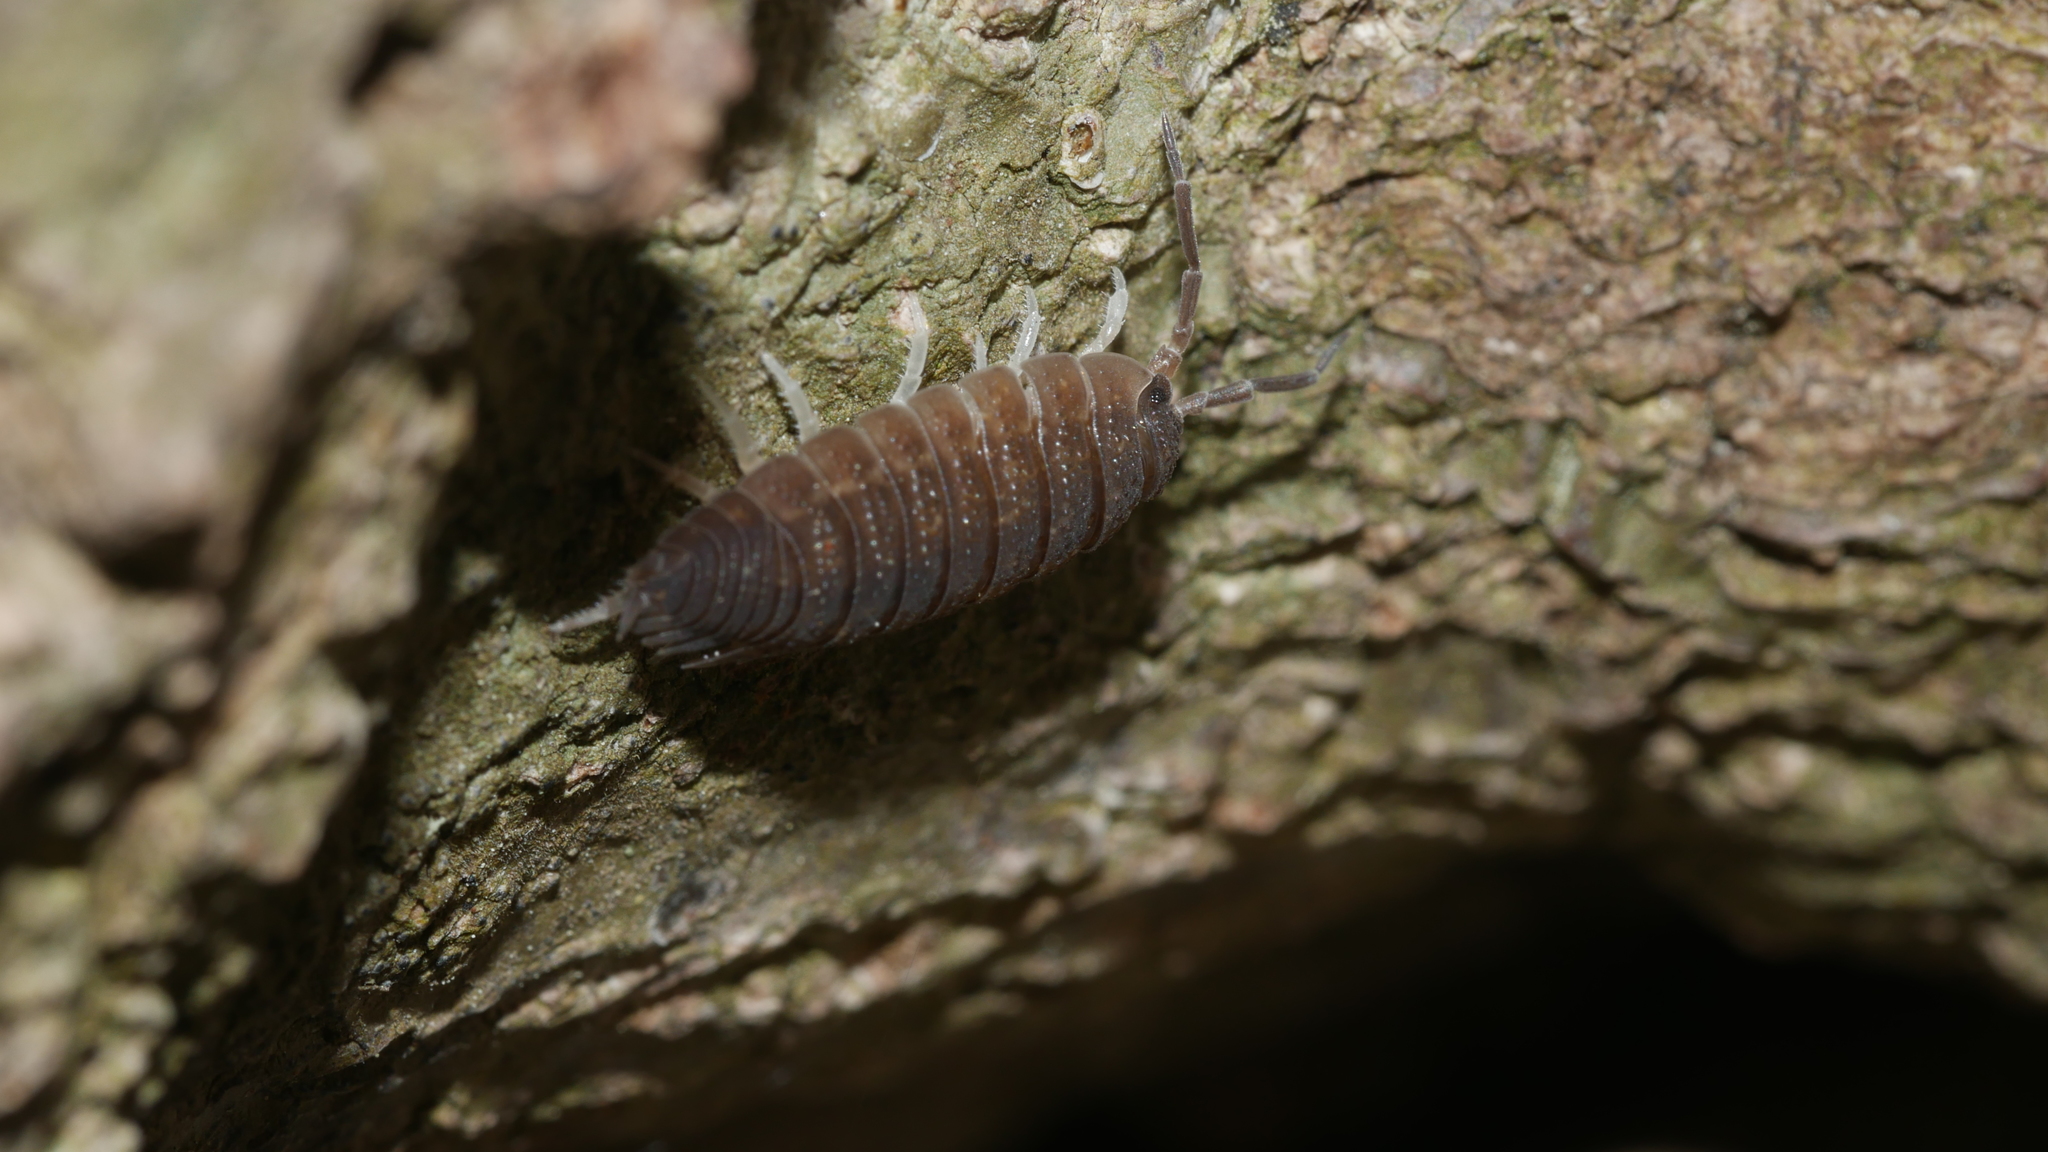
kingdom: Animalia
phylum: Arthropoda
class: Malacostraca
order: Isopoda
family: Porcellionidae
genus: Porcellio
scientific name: Porcellio scaber
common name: Common rough woodlouse
